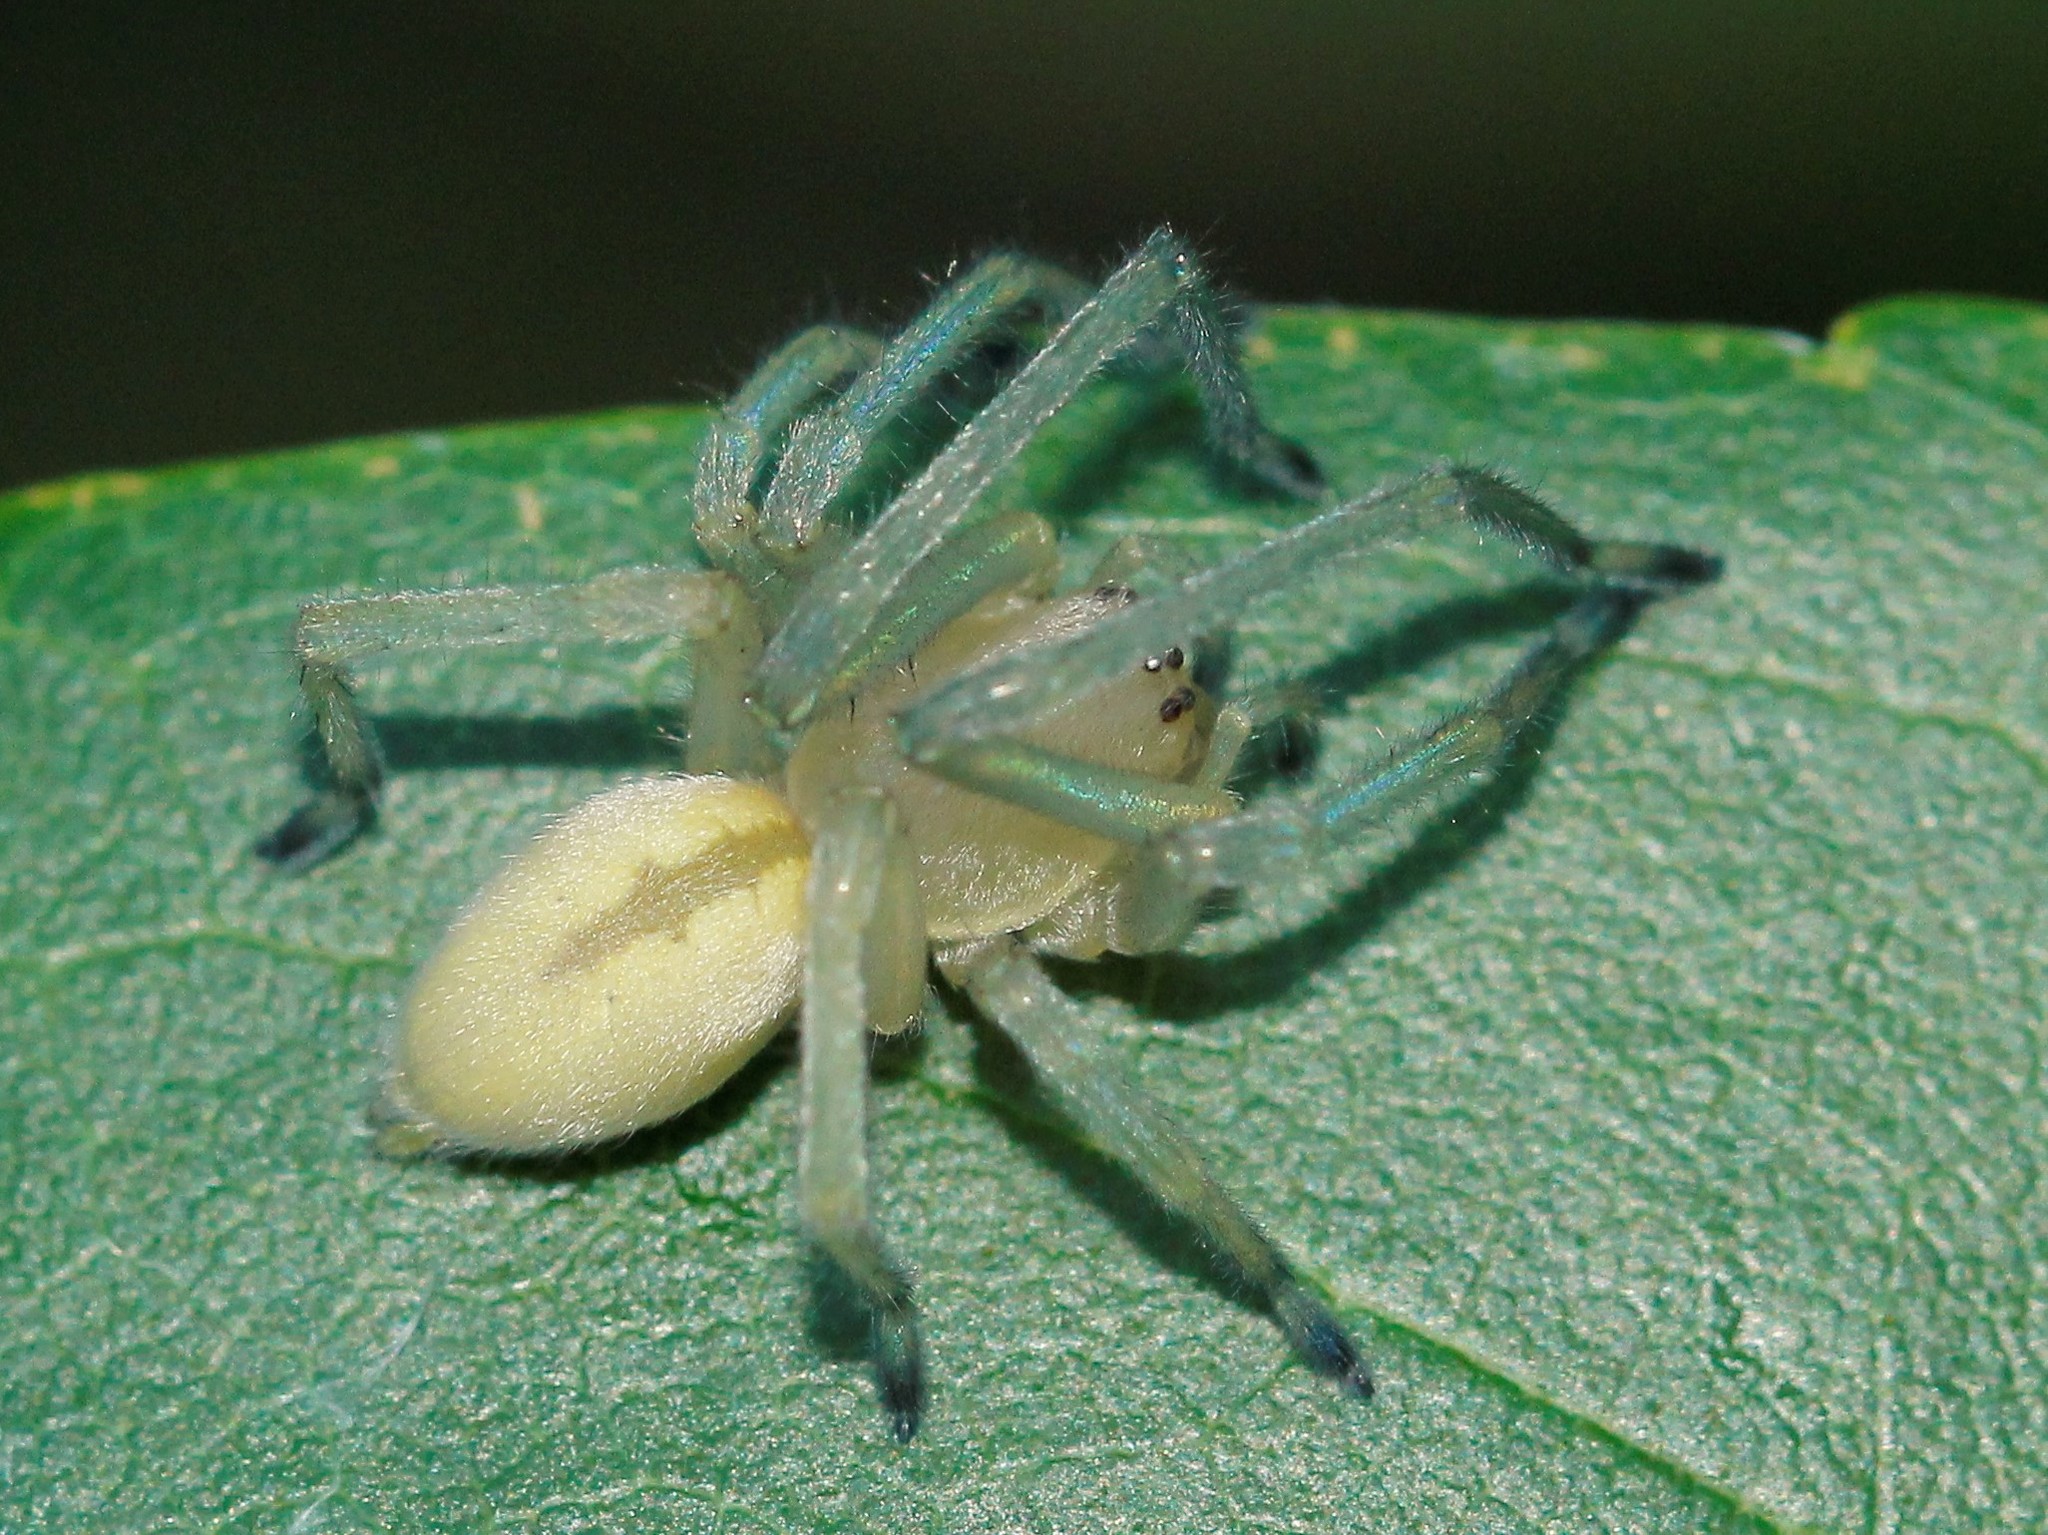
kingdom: Animalia
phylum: Arthropoda
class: Arachnida
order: Araneae
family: Cheiracanthiidae
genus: Cheiracanthium
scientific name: Cheiracanthium mildei
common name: Northern yellow sac spider
